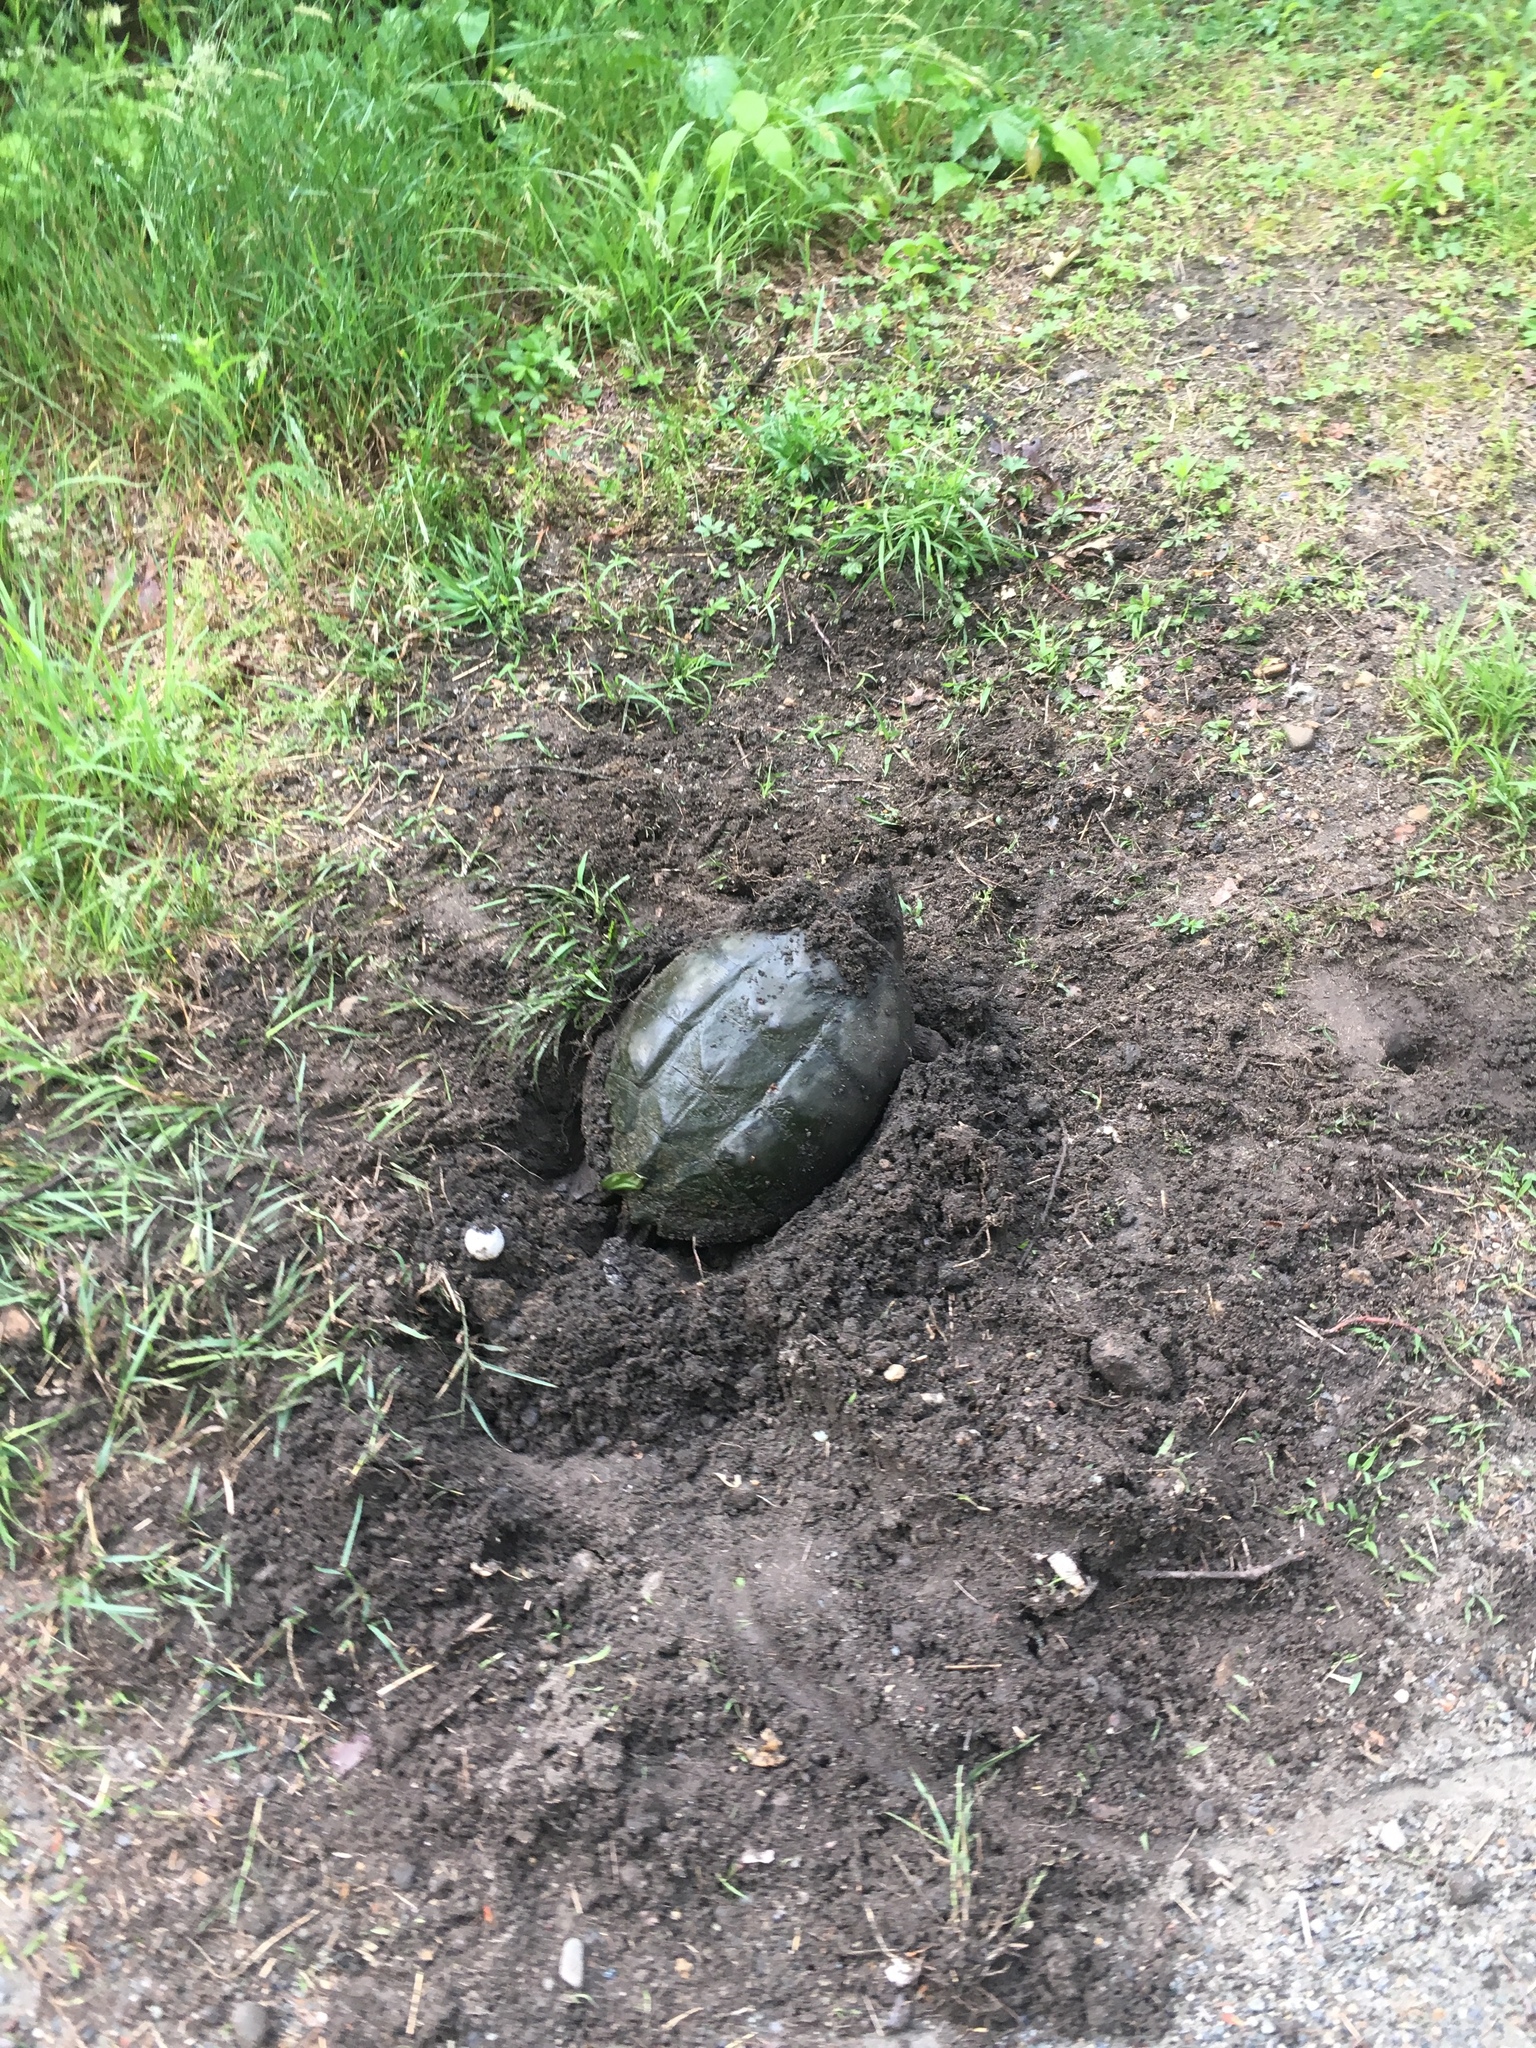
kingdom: Animalia
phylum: Chordata
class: Testudines
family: Chelydridae
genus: Chelydra
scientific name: Chelydra serpentina
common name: Common snapping turtle
